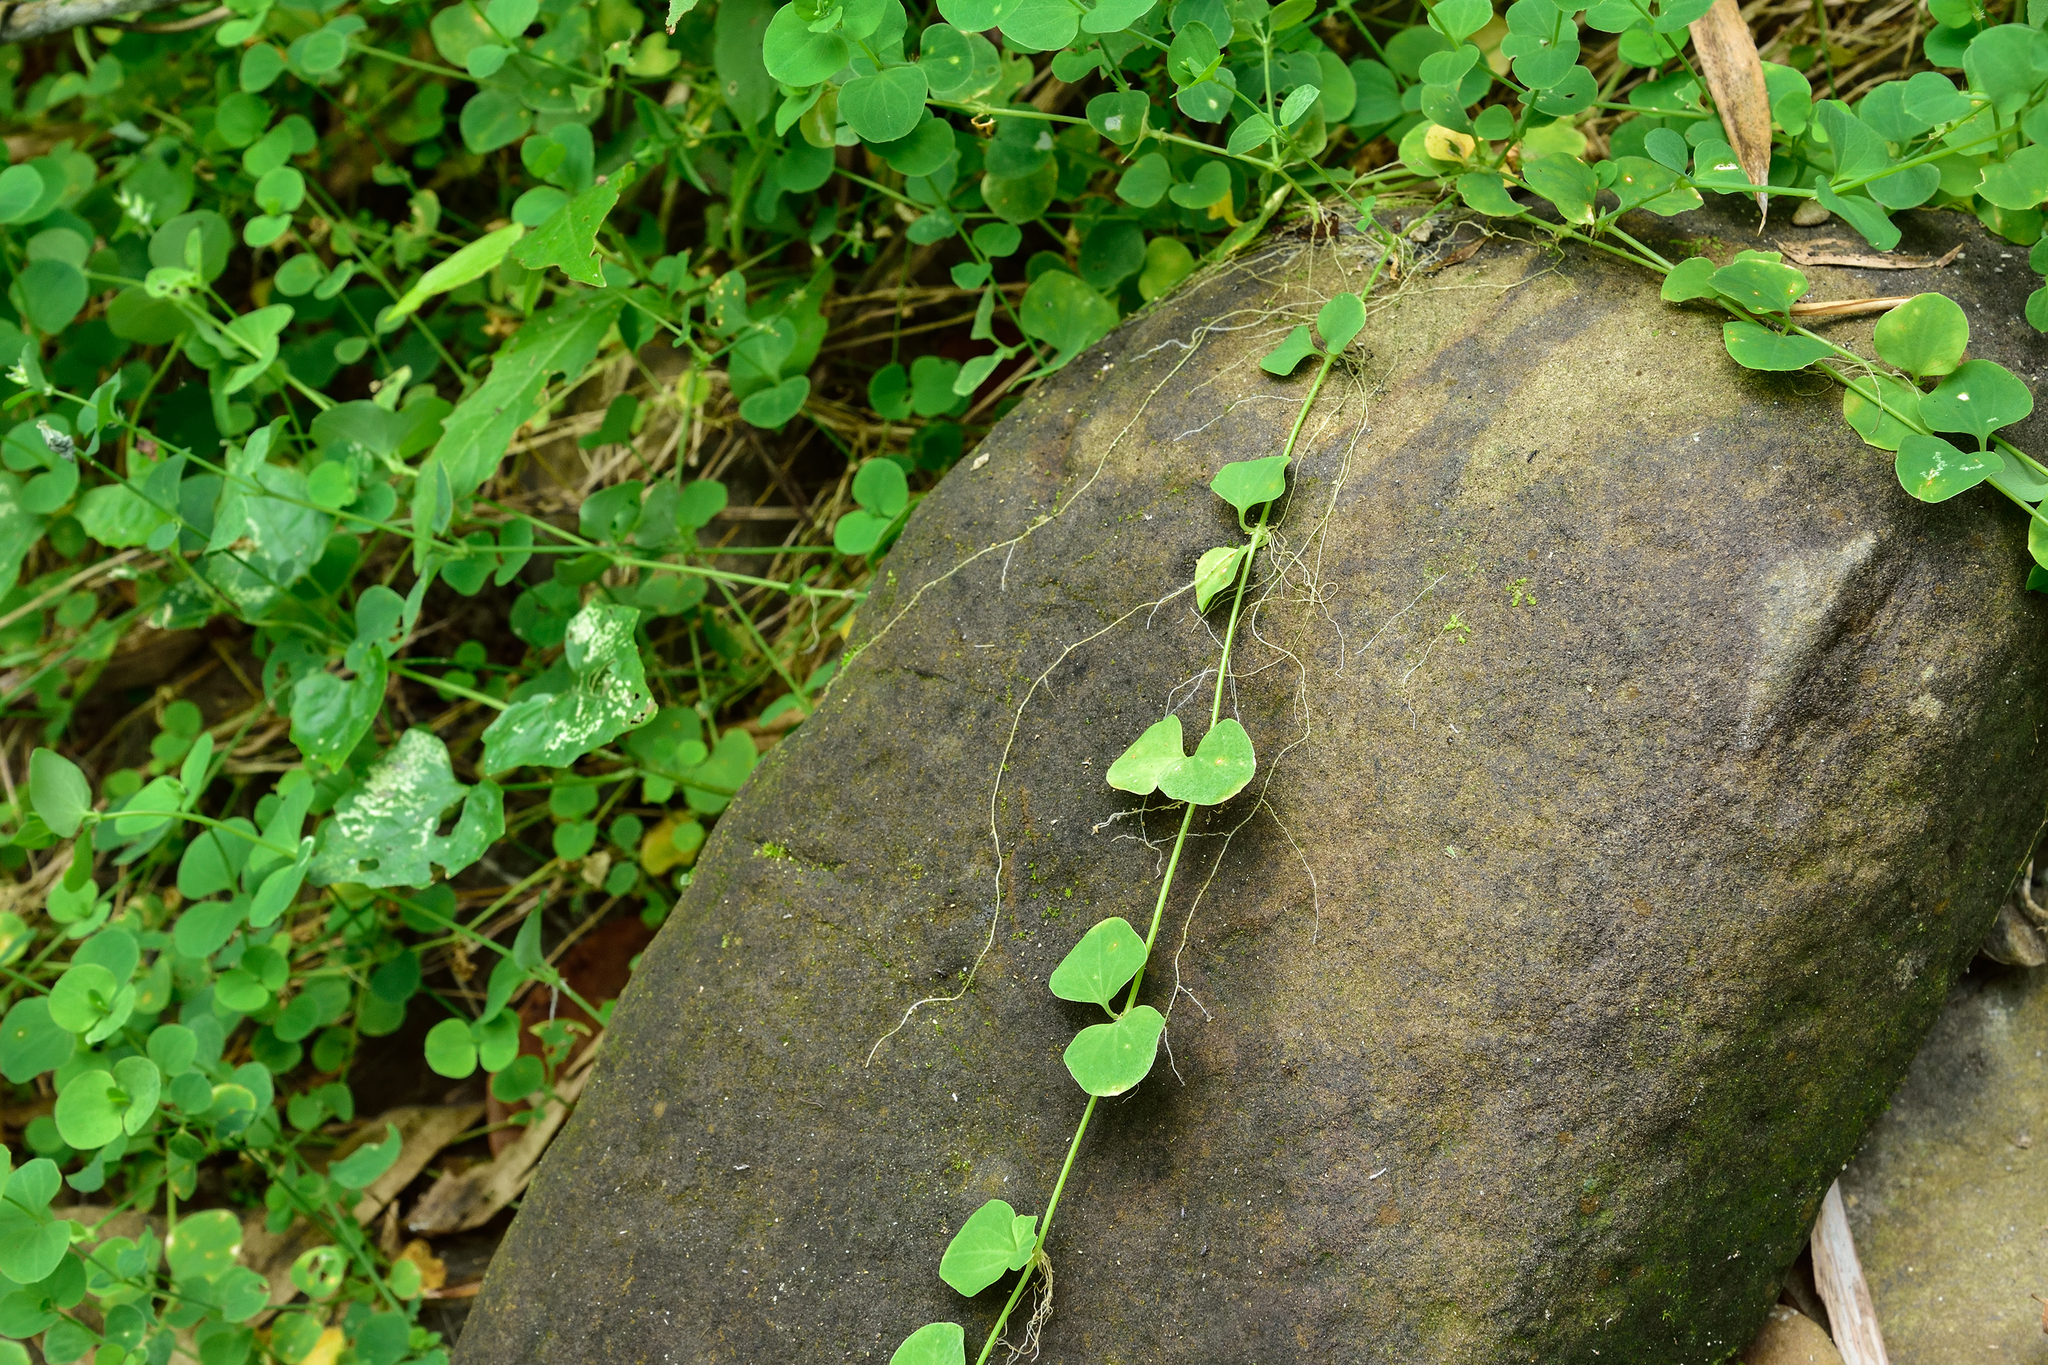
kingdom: Plantae
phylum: Tracheophyta
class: Magnoliopsida
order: Caryophyllales
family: Caryophyllaceae
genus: Drymaria
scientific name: Drymaria cordata
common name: Whitesnow
